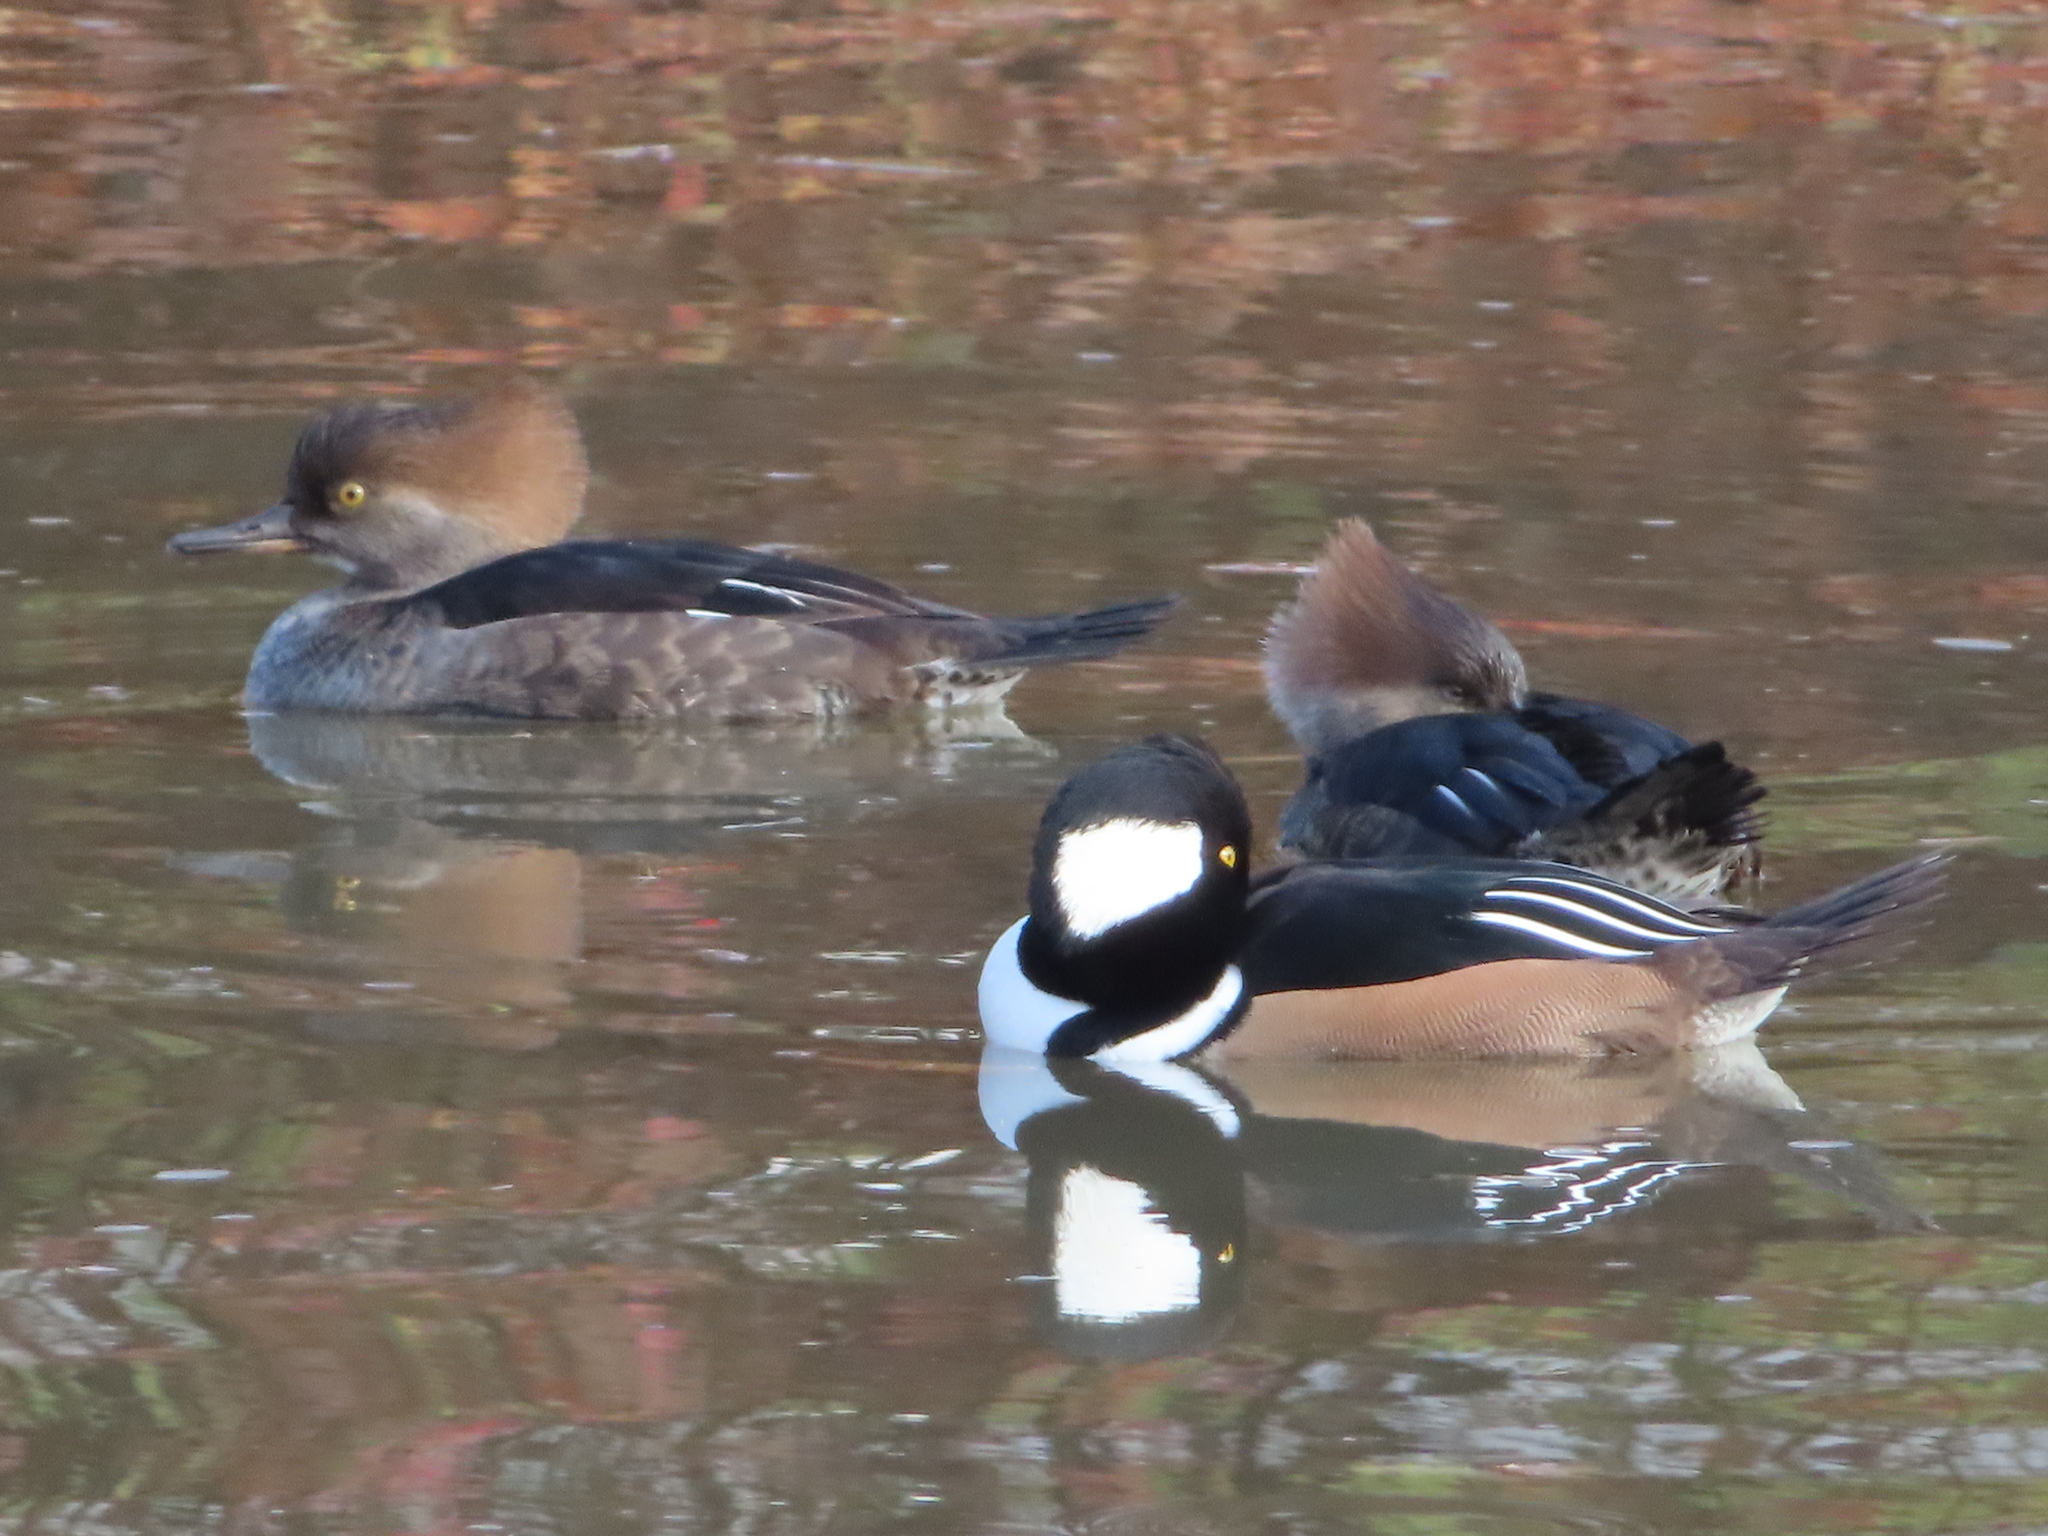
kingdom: Animalia
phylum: Chordata
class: Aves
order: Anseriformes
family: Anatidae
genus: Lophodytes
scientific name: Lophodytes cucullatus
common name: Hooded merganser
